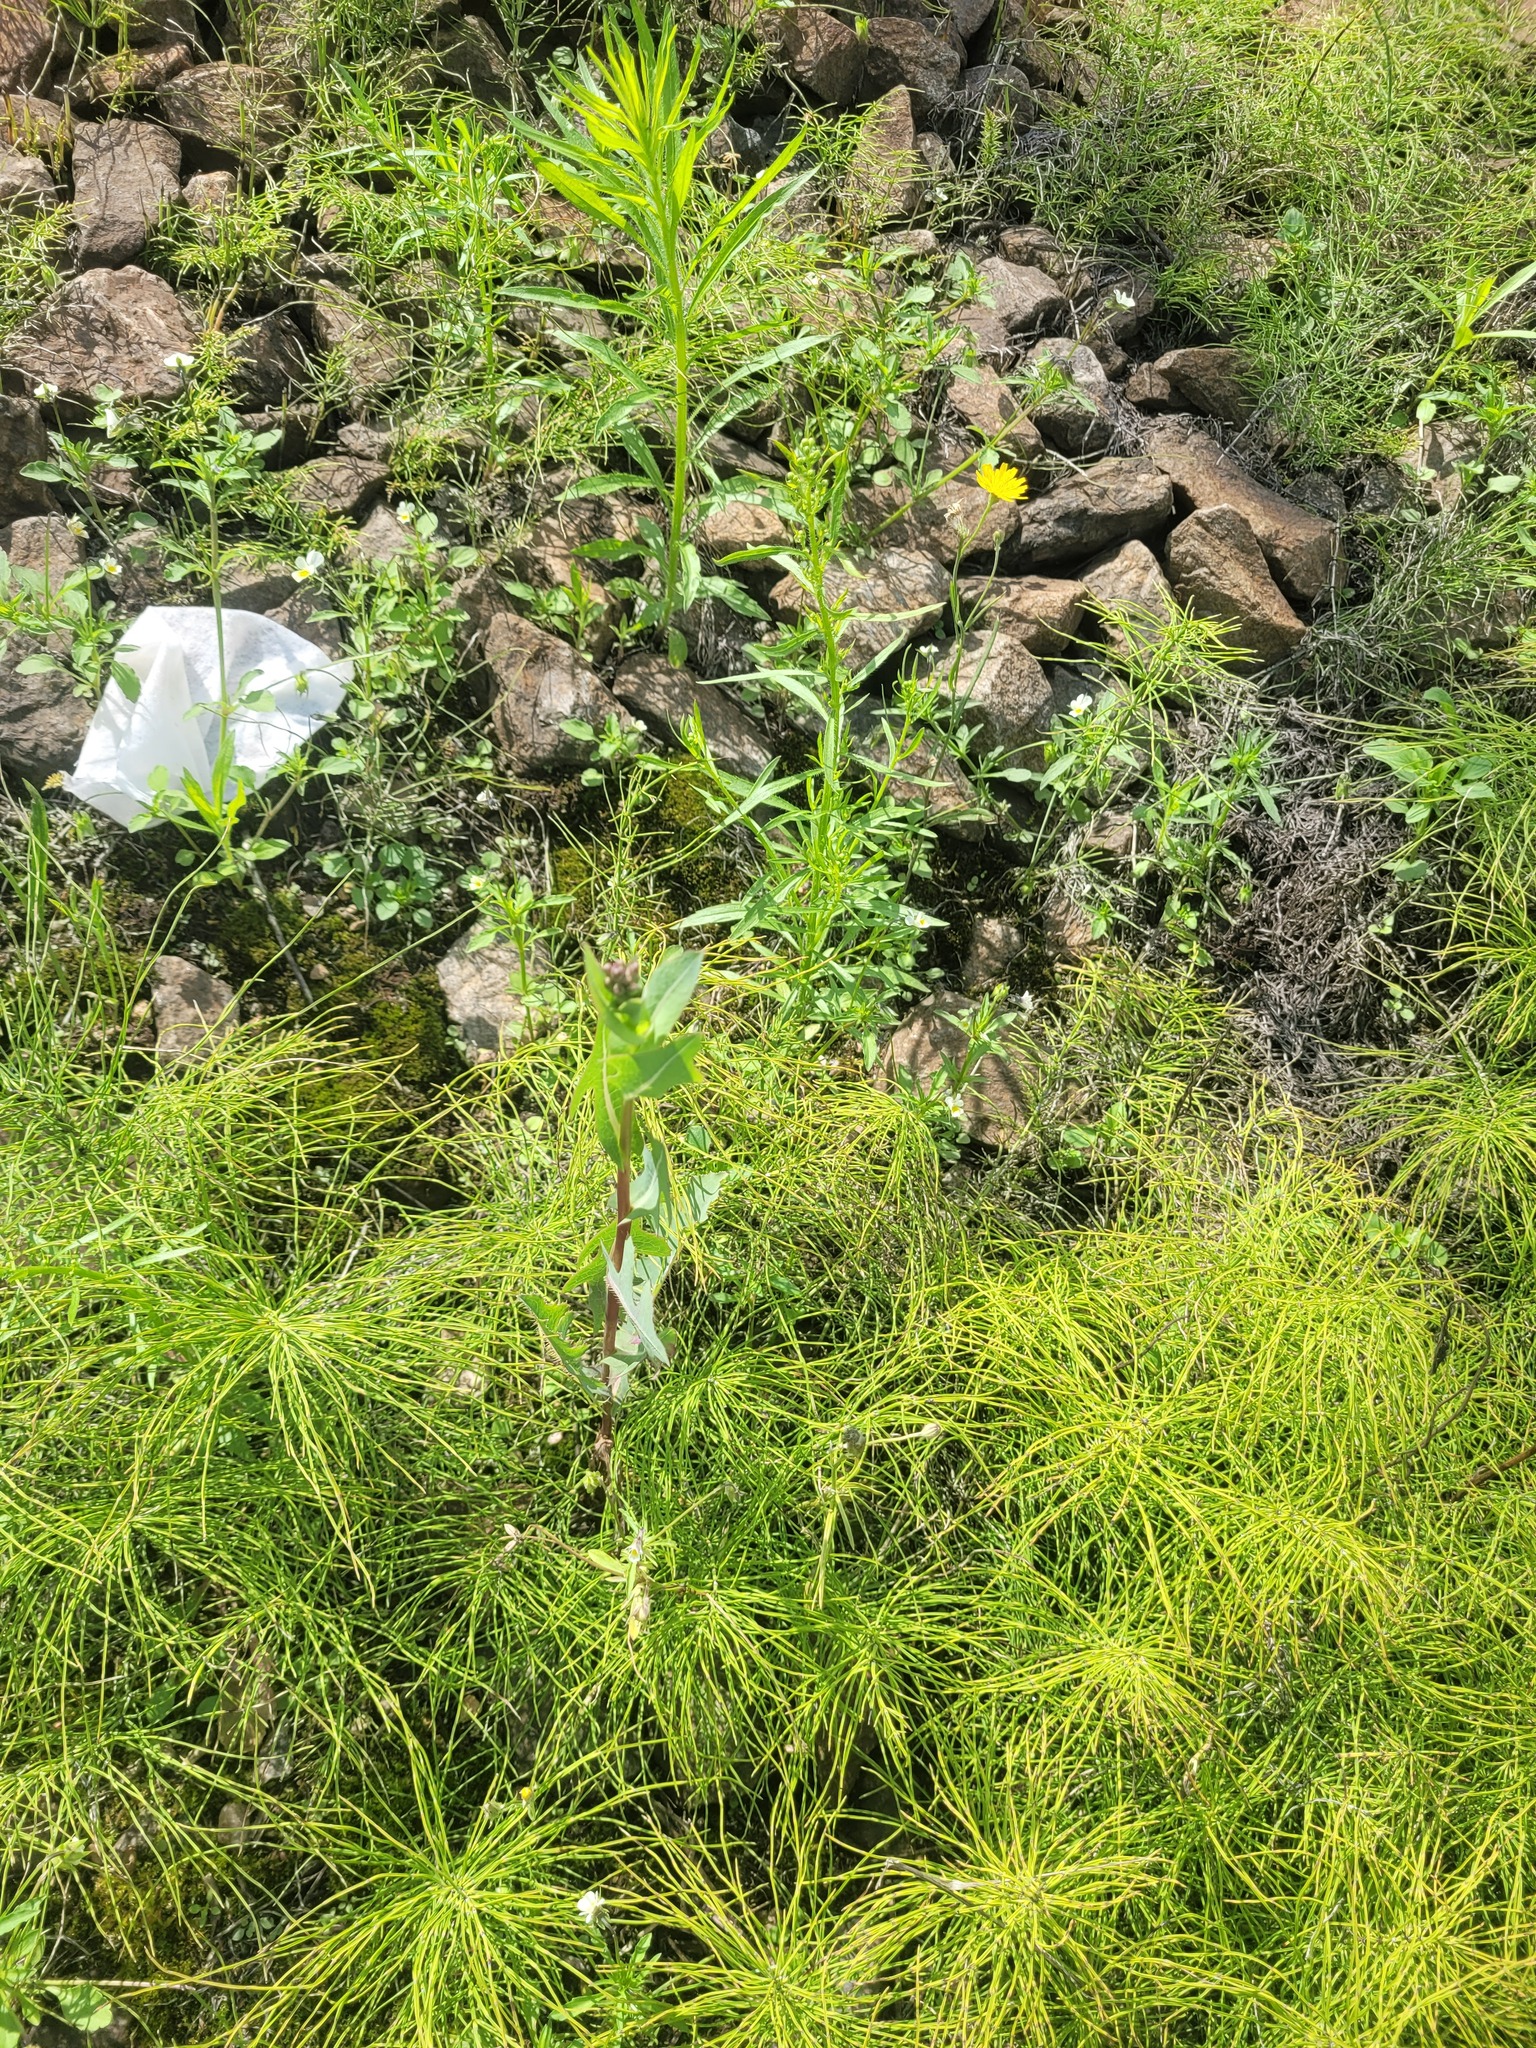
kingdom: Plantae
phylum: Tracheophyta
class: Magnoliopsida
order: Asterales
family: Asteraceae
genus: Lactuca
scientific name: Lactuca serriola
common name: Prickly lettuce
